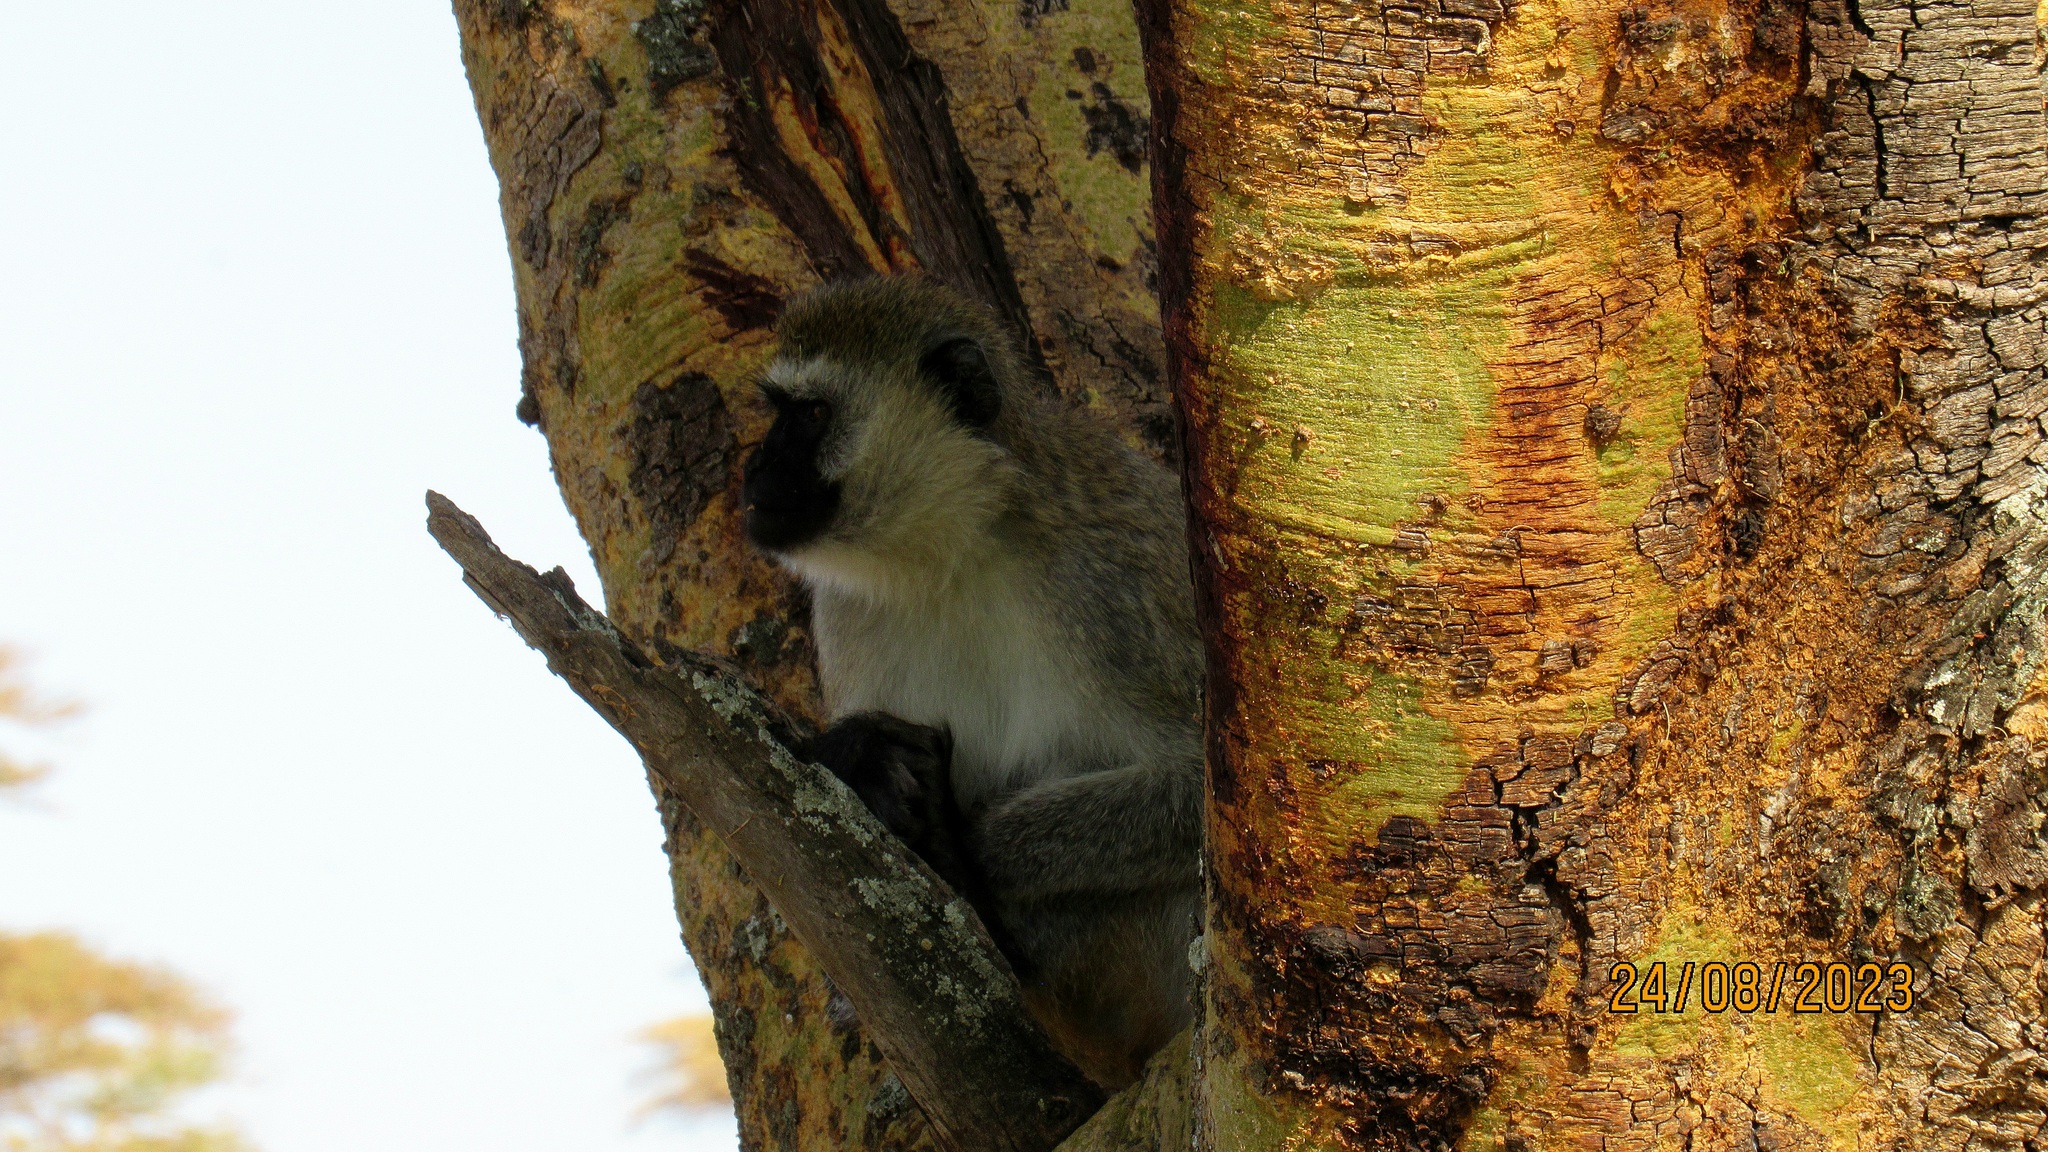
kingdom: Animalia
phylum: Chordata
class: Mammalia
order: Primates
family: Cercopithecidae
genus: Chlorocebus
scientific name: Chlorocebus pygerythrus
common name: Vervet monkey
